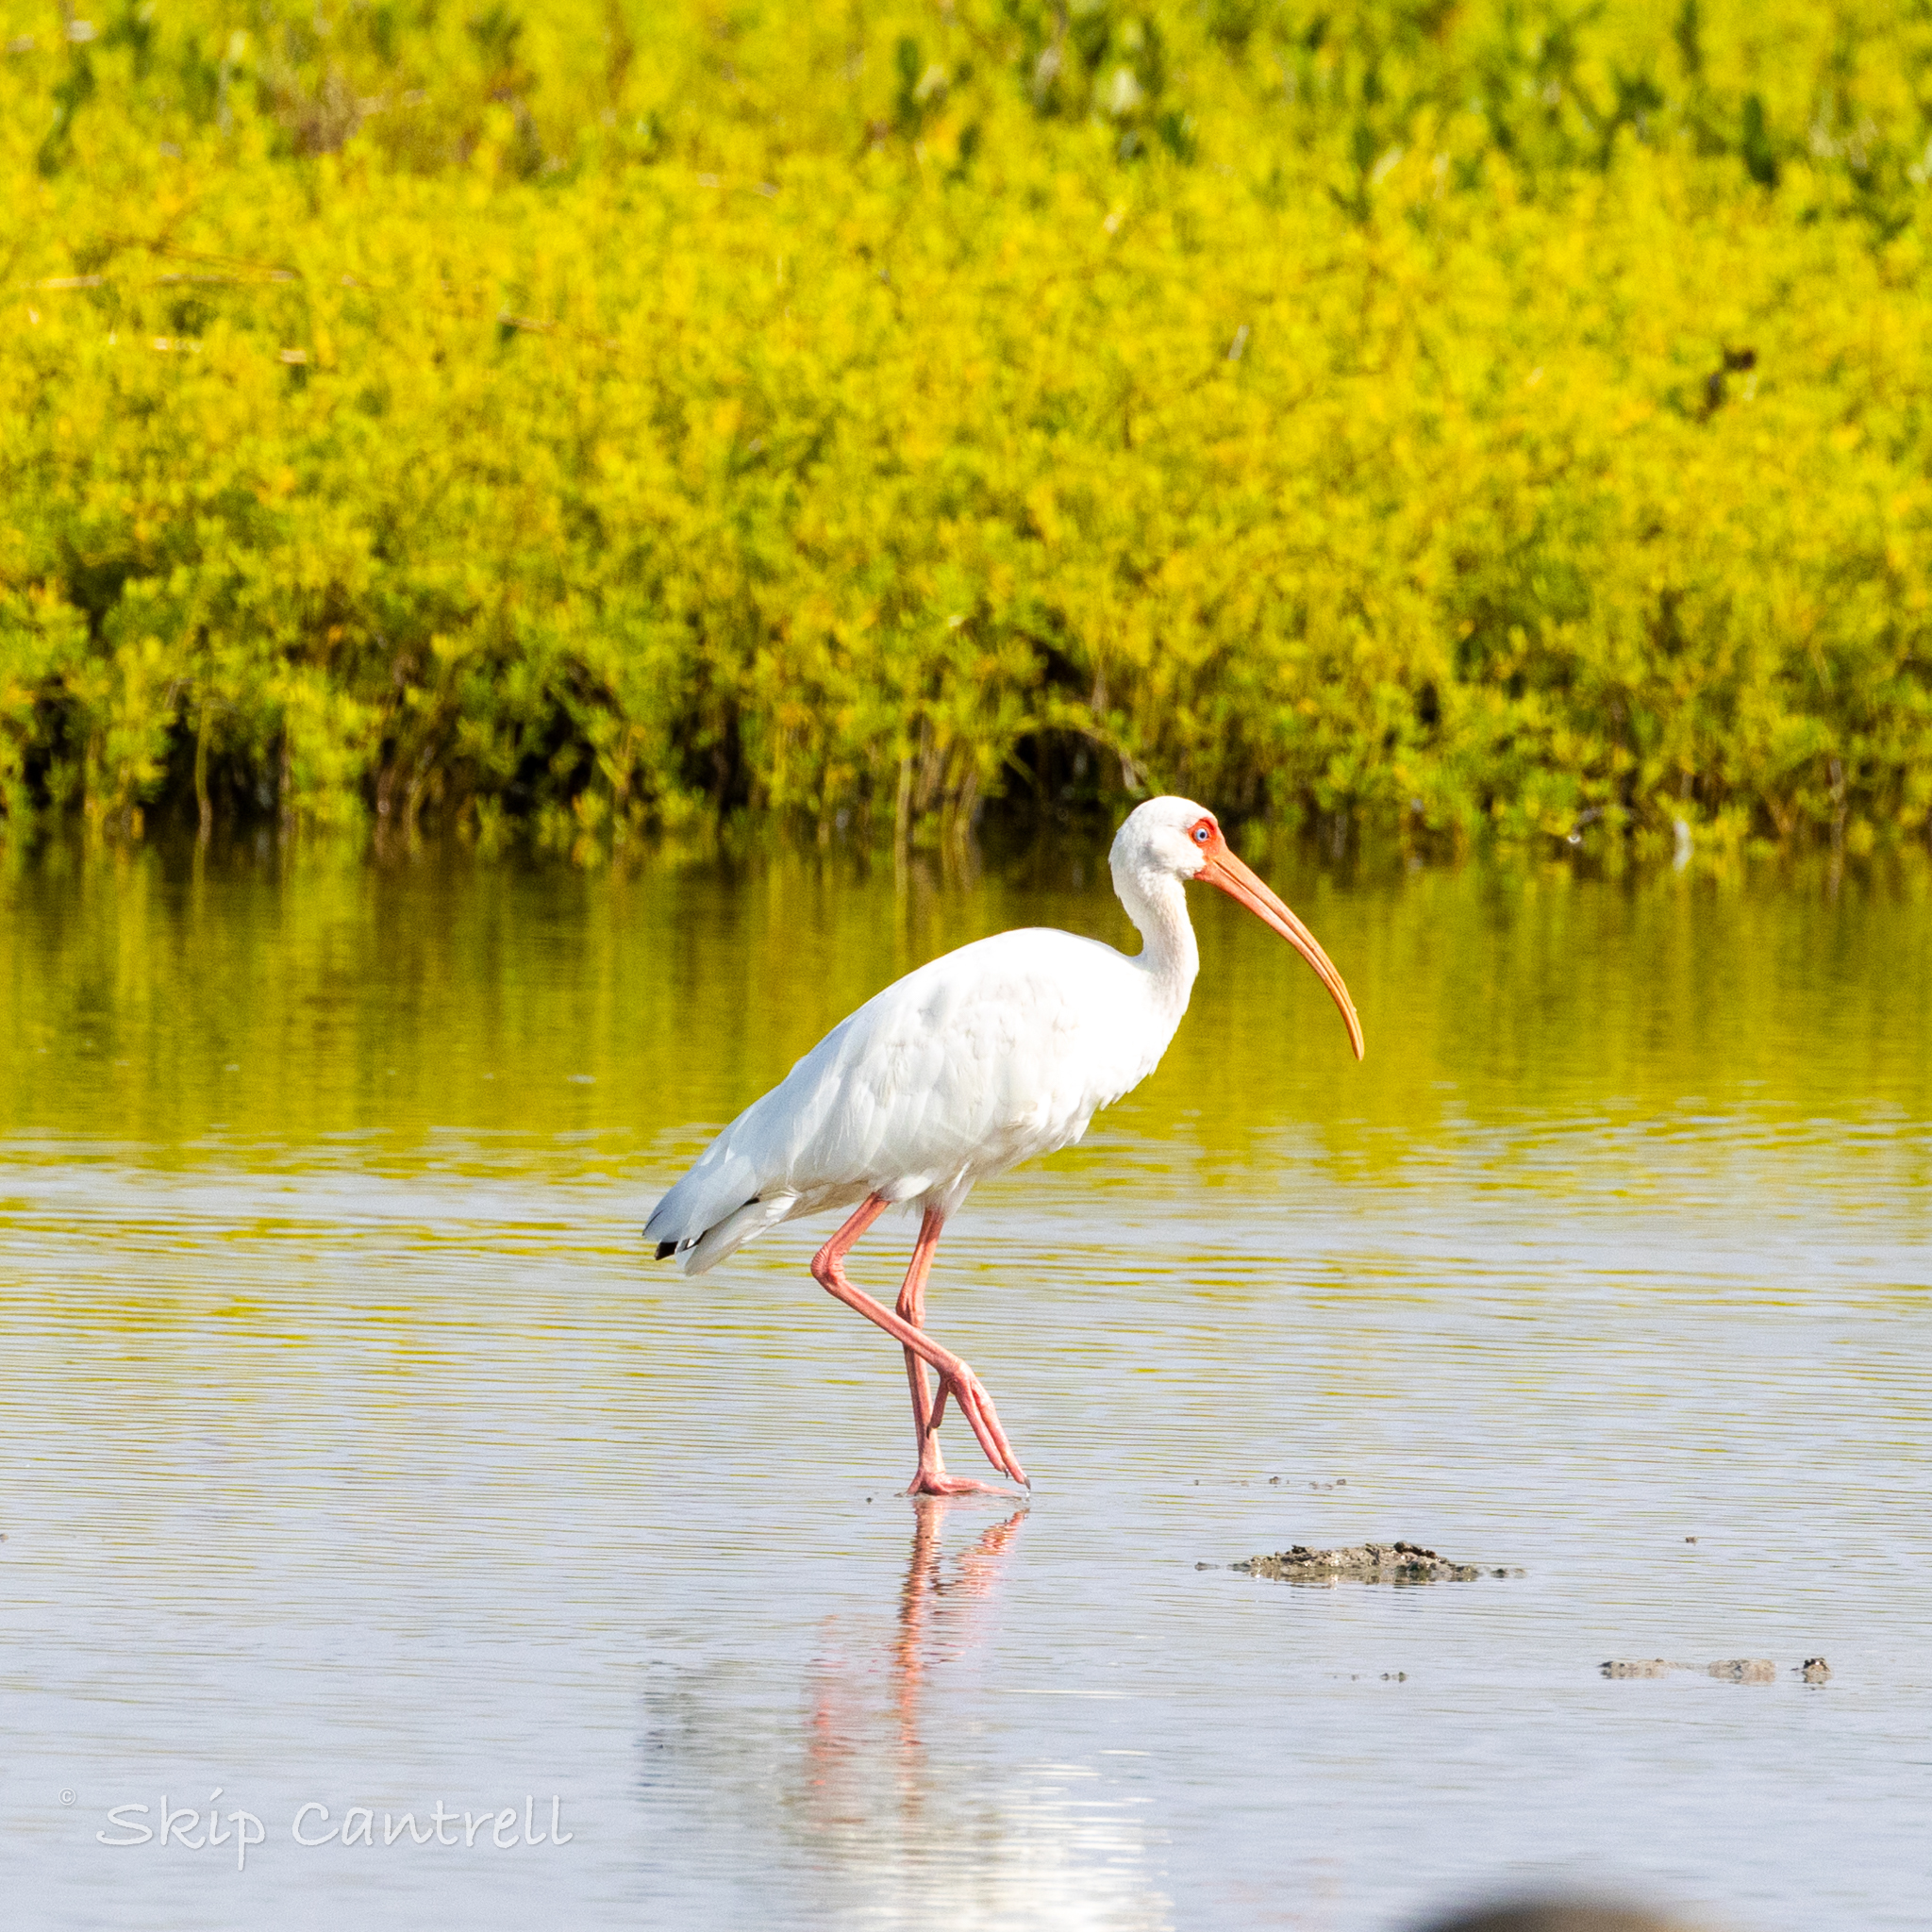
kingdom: Animalia
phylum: Chordata
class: Aves
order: Pelecaniformes
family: Threskiornithidae
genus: Eudocimus
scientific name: Eudocimus albus
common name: White ibis
